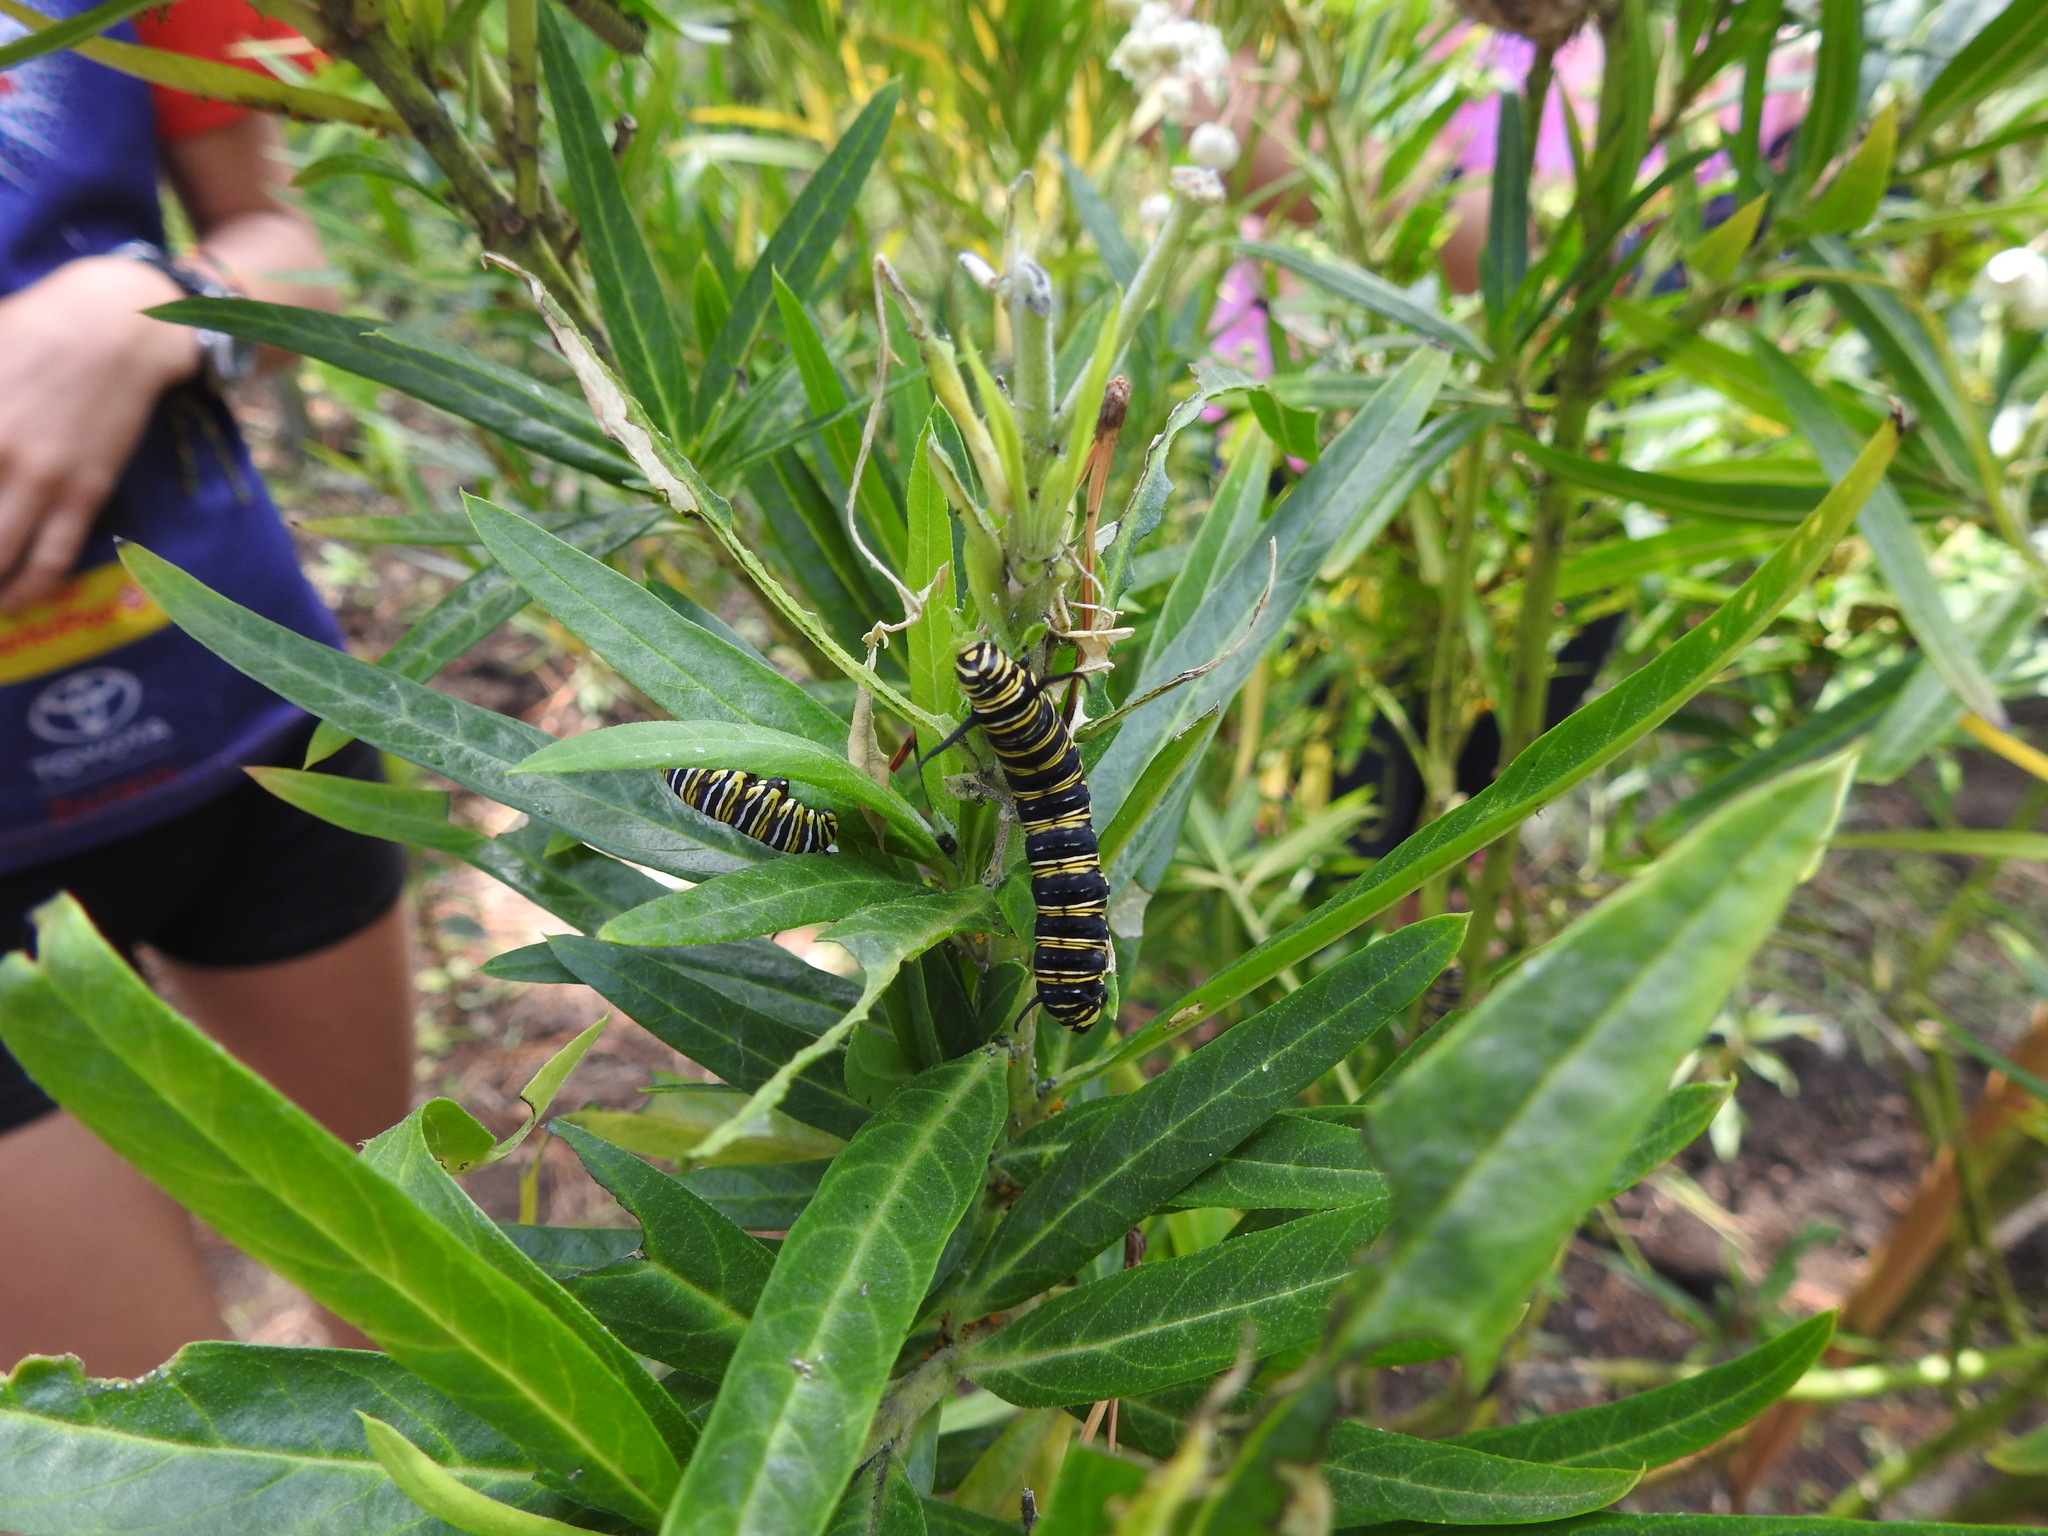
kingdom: Animalia
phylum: Arthropoda
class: Insecta
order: Lepidoptera
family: Nymphalidae
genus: Danaus
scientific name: Danaus plexippus
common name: Monarch
